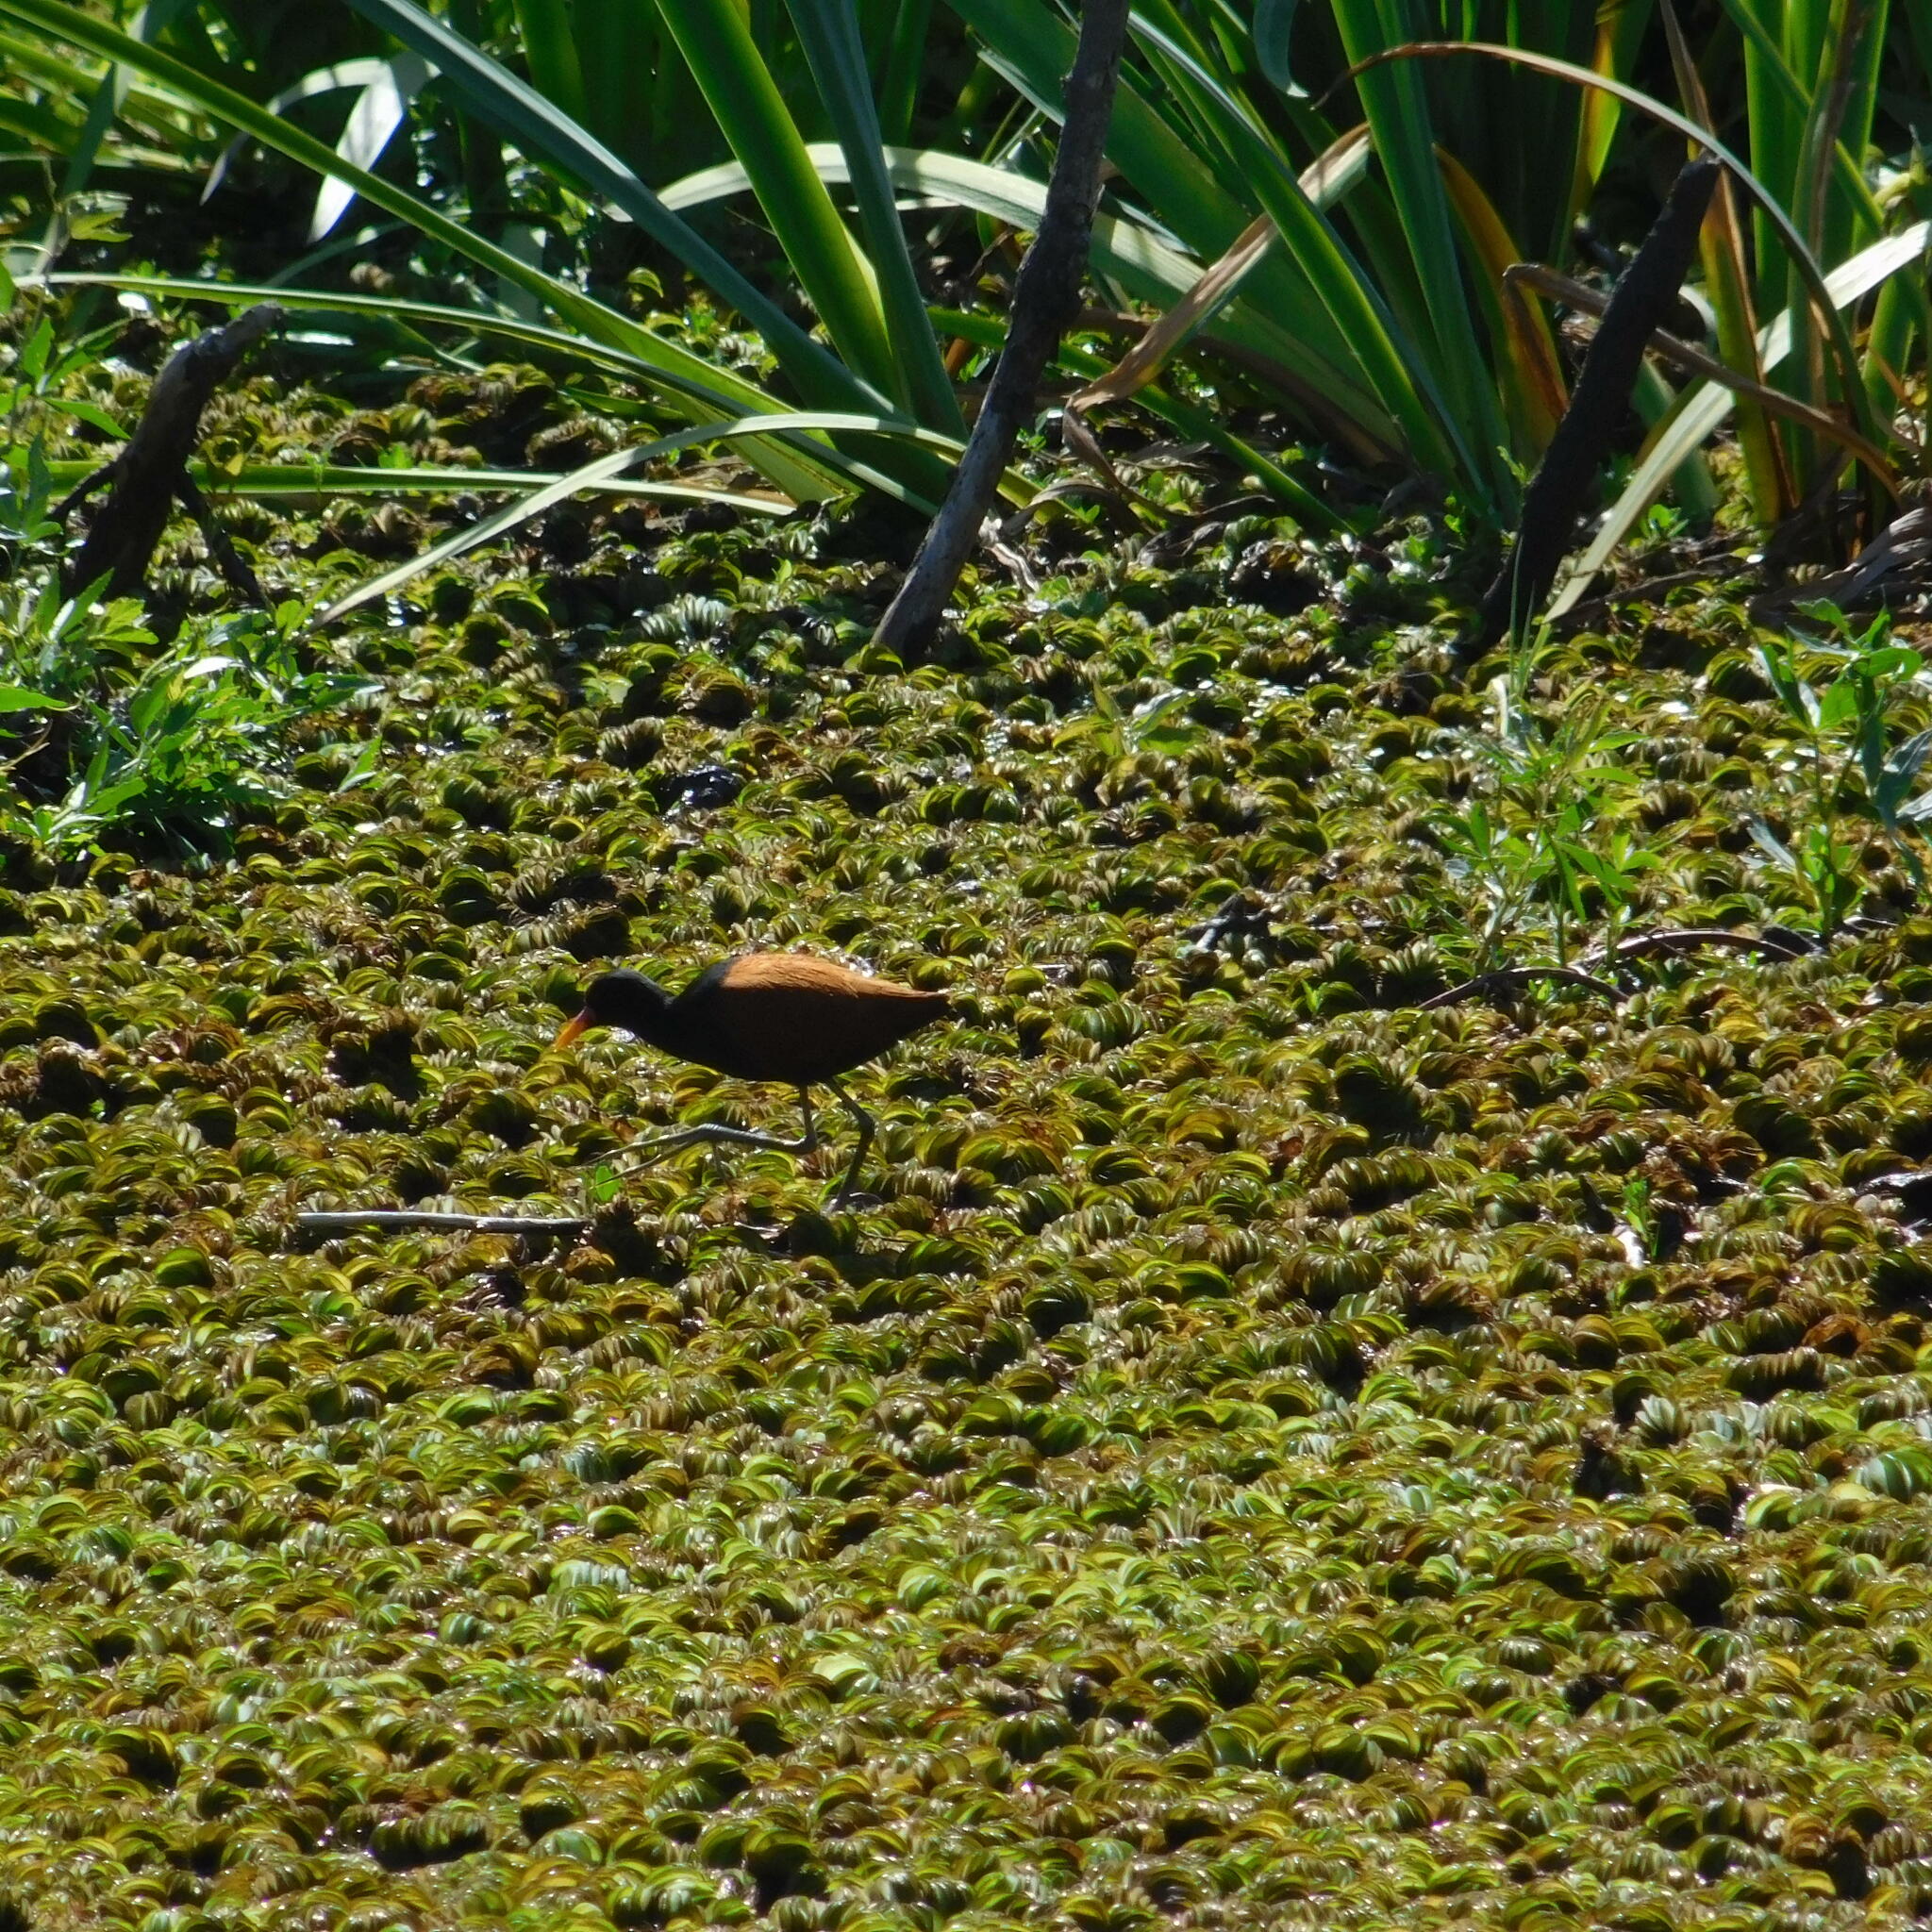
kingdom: Animalia
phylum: Chordata
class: Aves
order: Charadriiformes
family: Jacanidae
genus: Jacana
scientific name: Jacana jacana
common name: Wattled jacana
